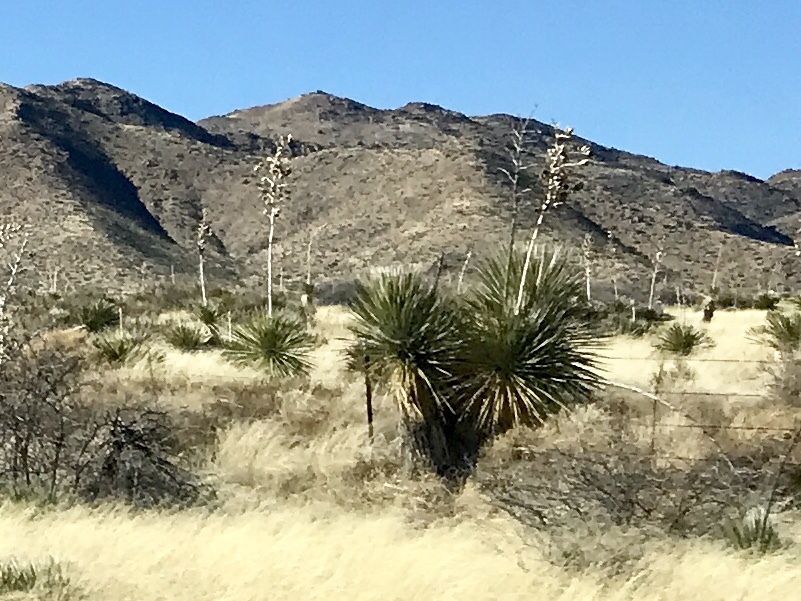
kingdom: Plantae
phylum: Tracheophyta
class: Liliopsida
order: Asparagales
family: Asparagaceae
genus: Yucca
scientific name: Yucca elata
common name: Palmella
